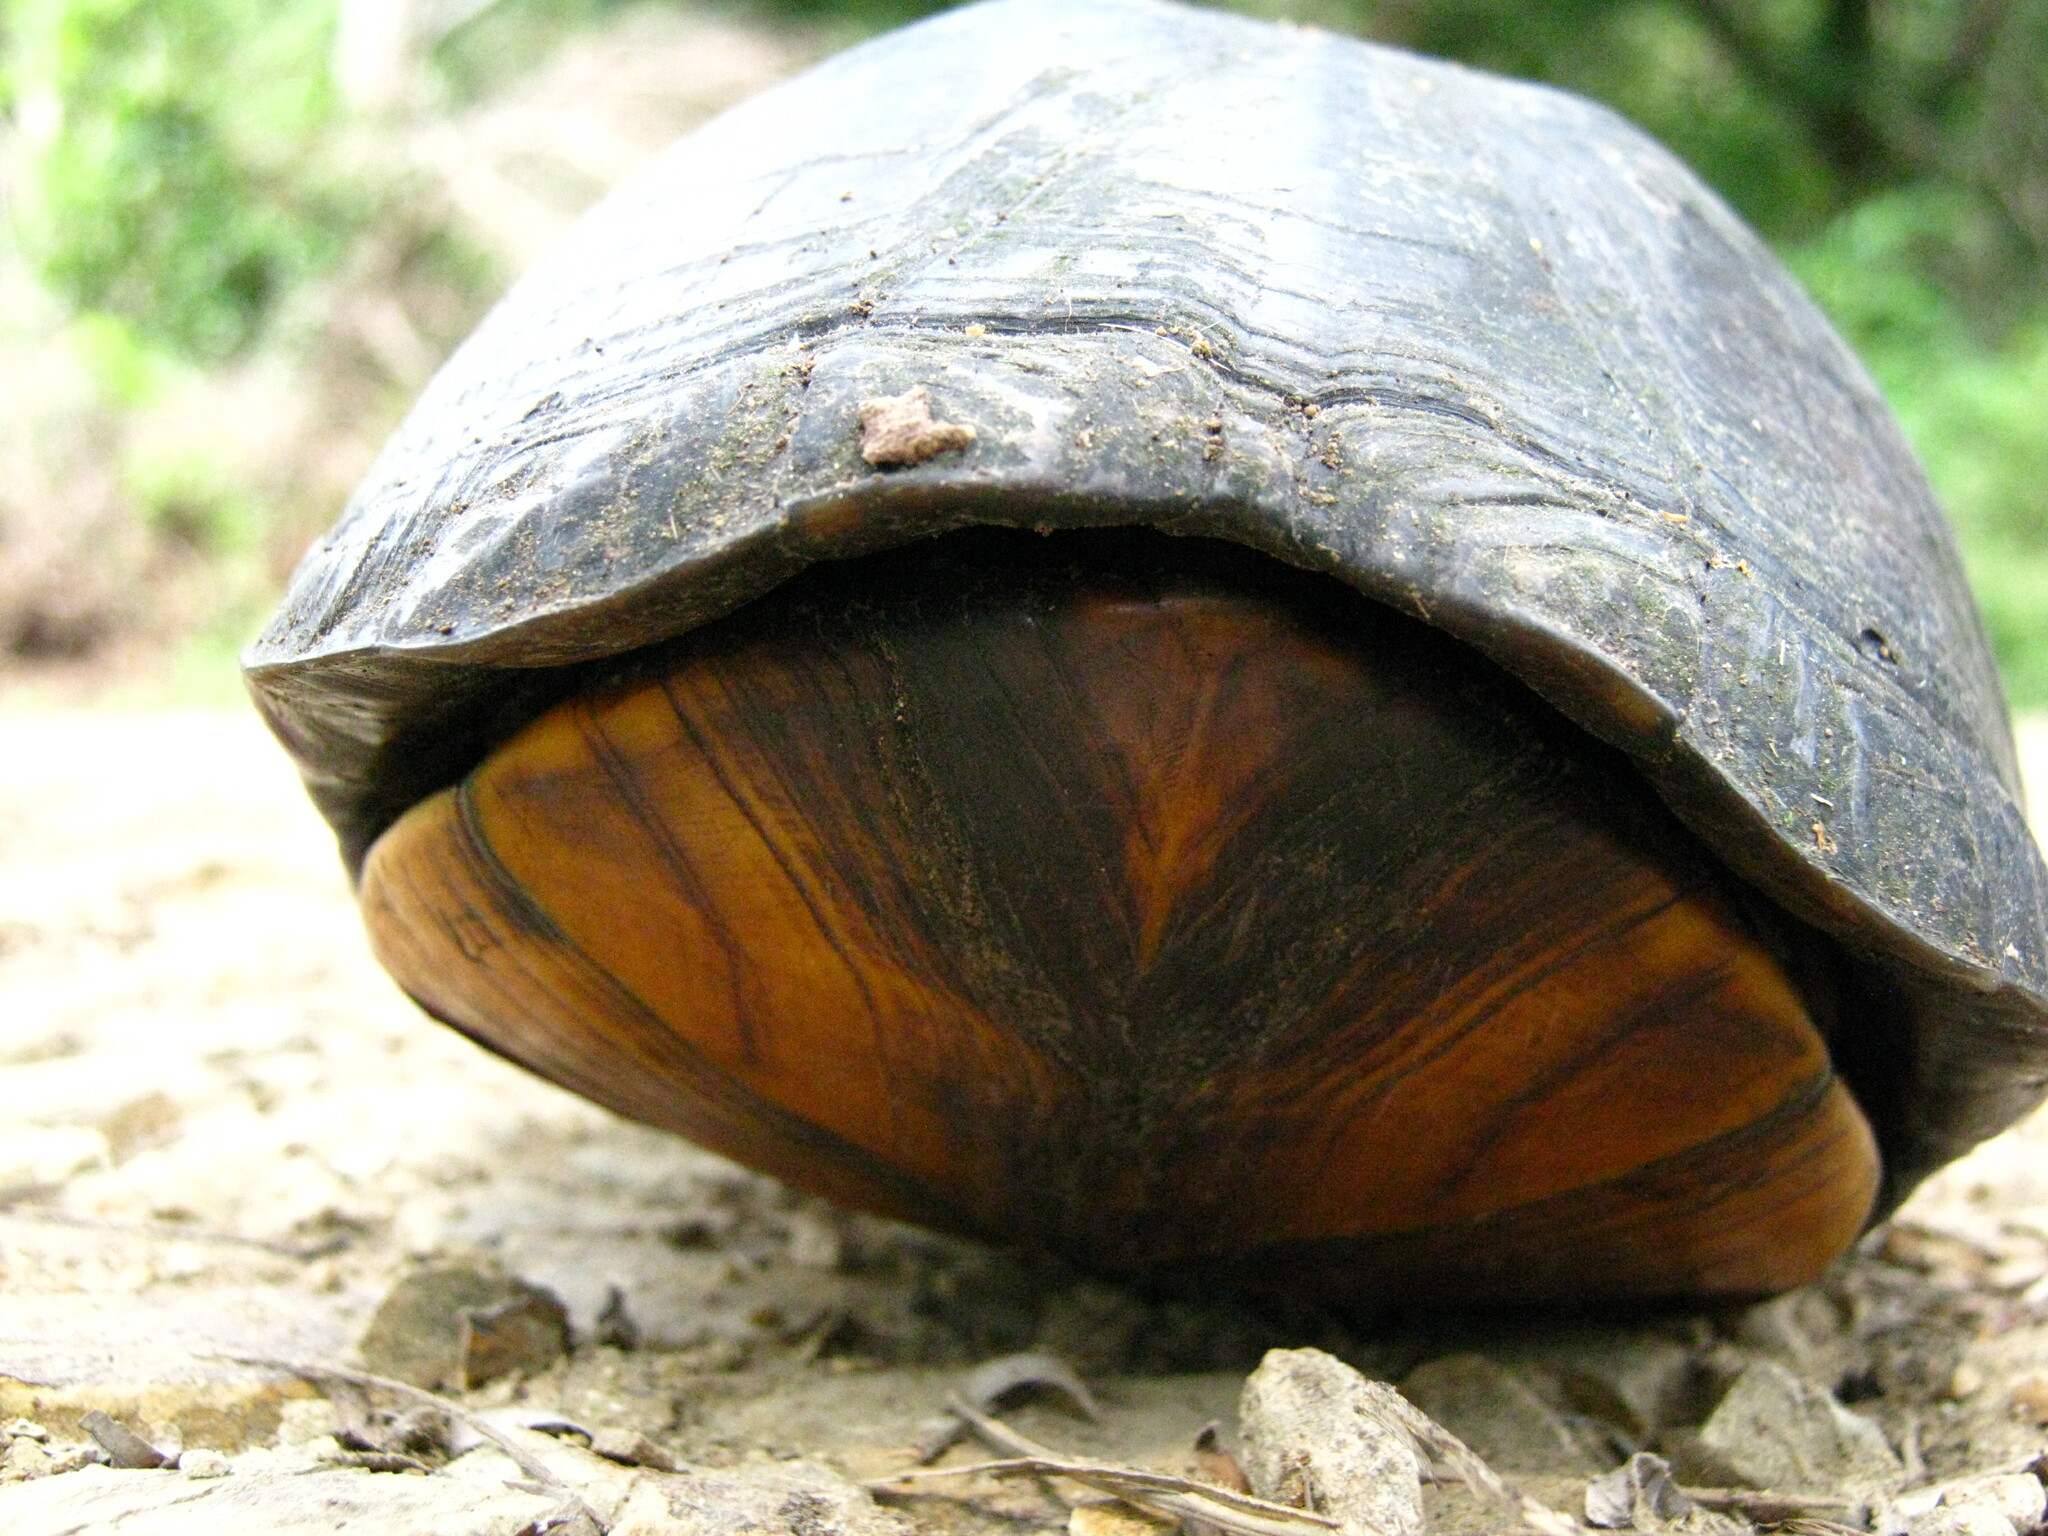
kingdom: Animalia
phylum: Chordata
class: Testudines
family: Kinosternidae
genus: Kinosternon
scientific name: Kinosternon scorpioides
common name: Scorpion mud turtle
